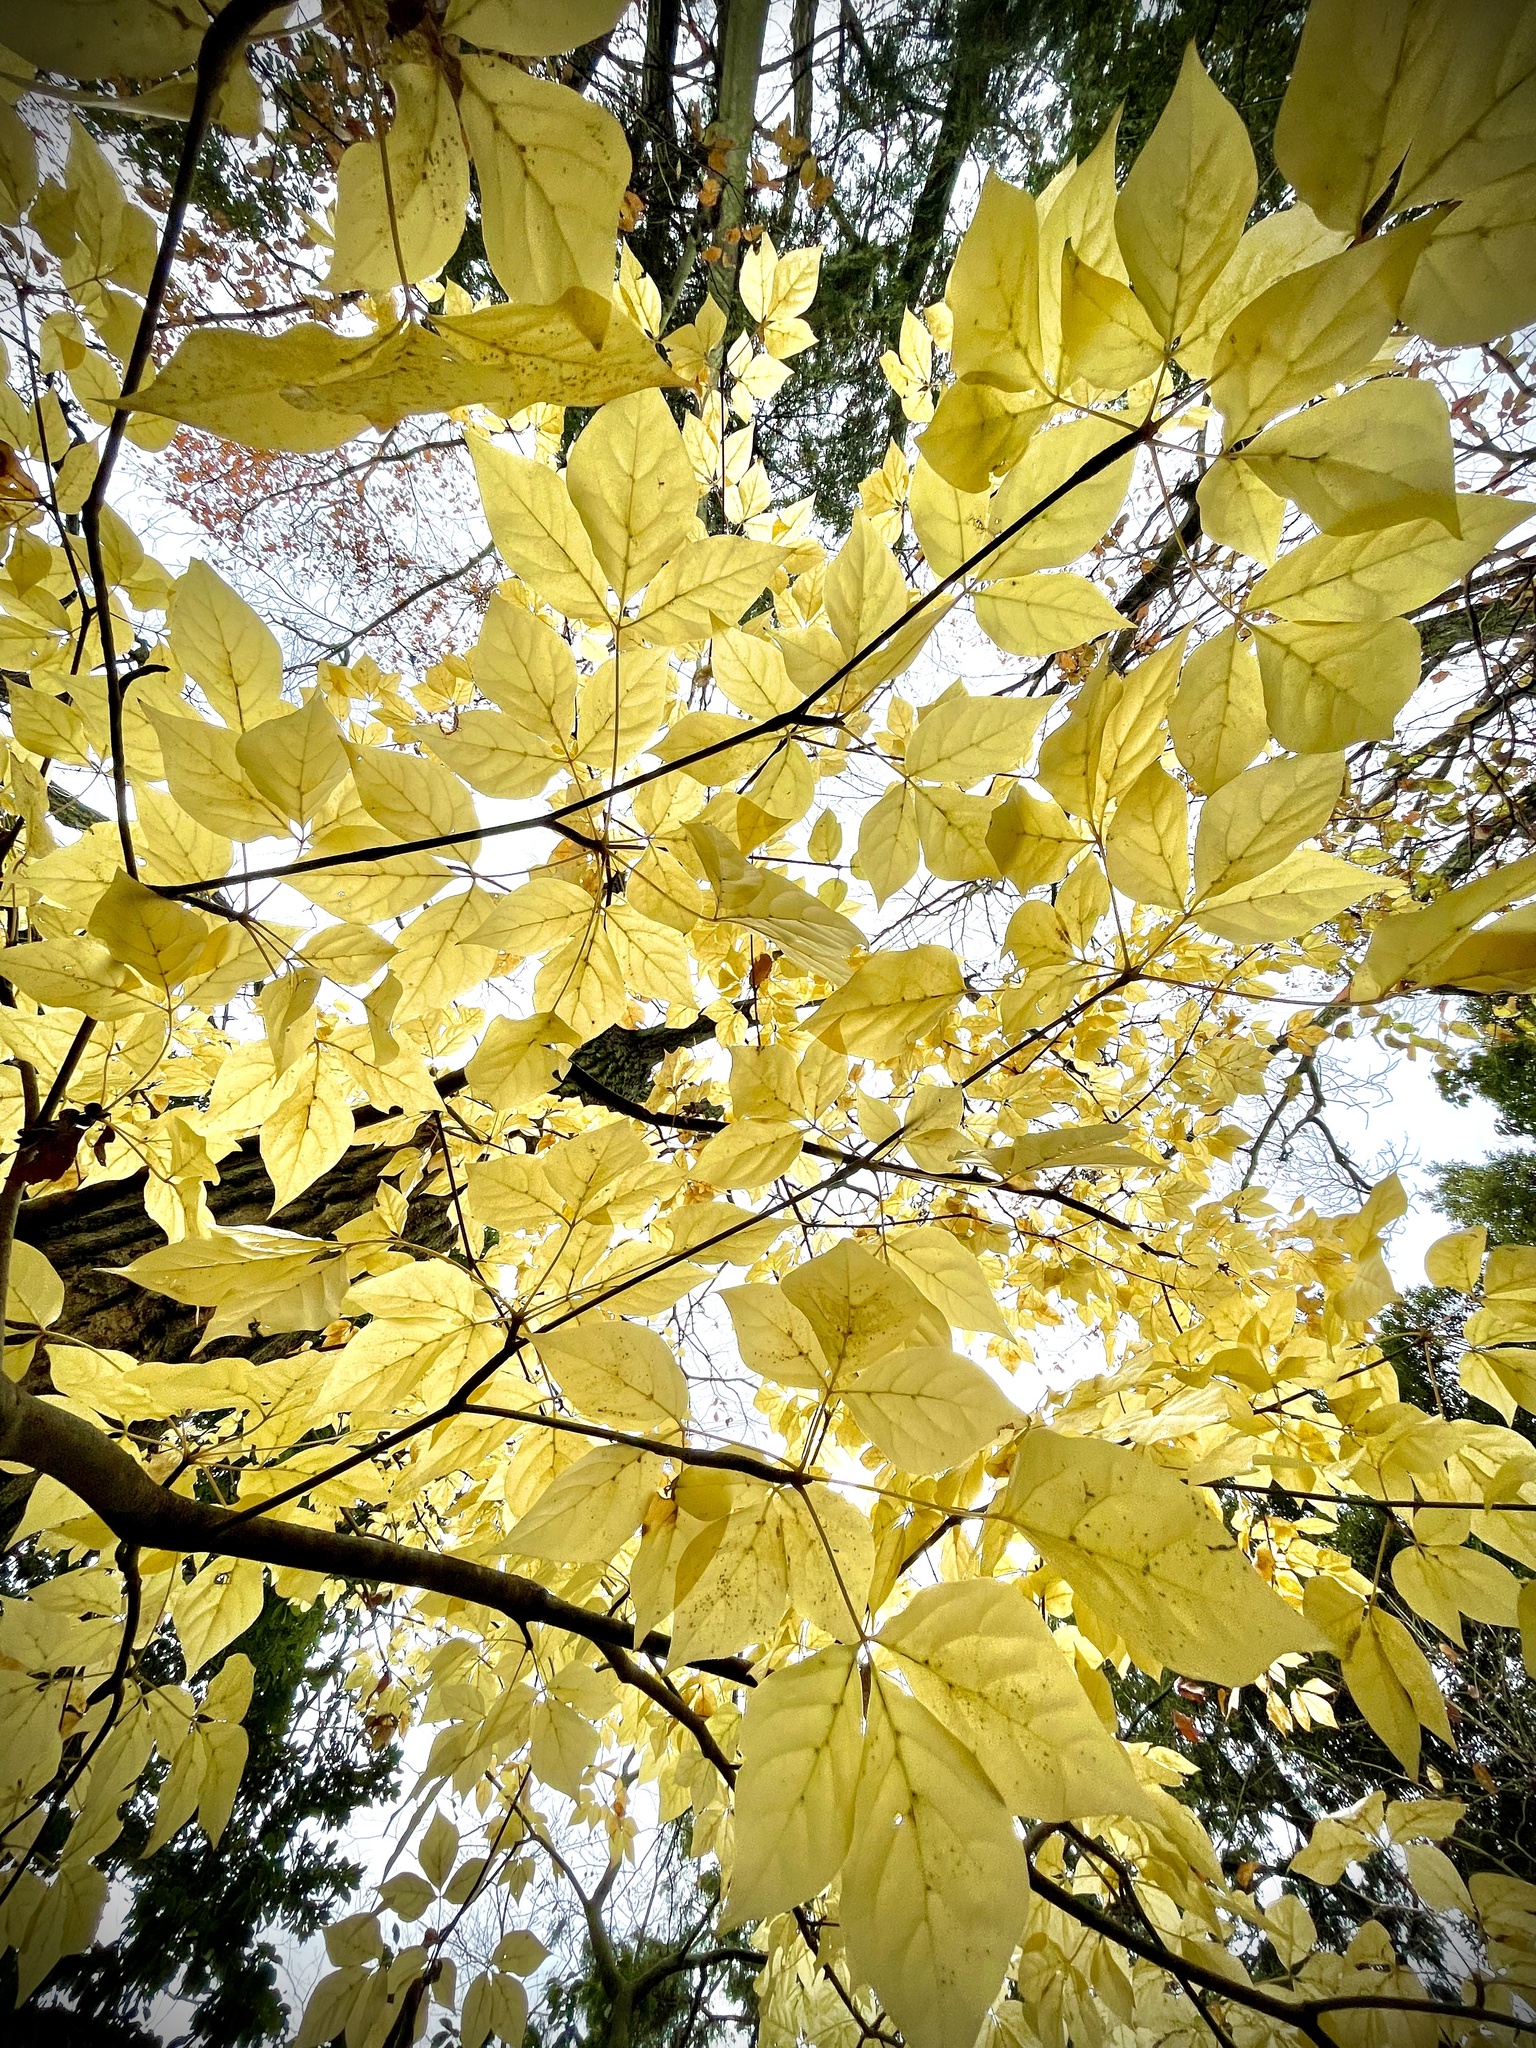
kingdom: Plantae
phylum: Tracheophyta
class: Magnoliopsida
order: Apiales
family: Araliaceae
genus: Gamblea
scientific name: Gamblea innovans
